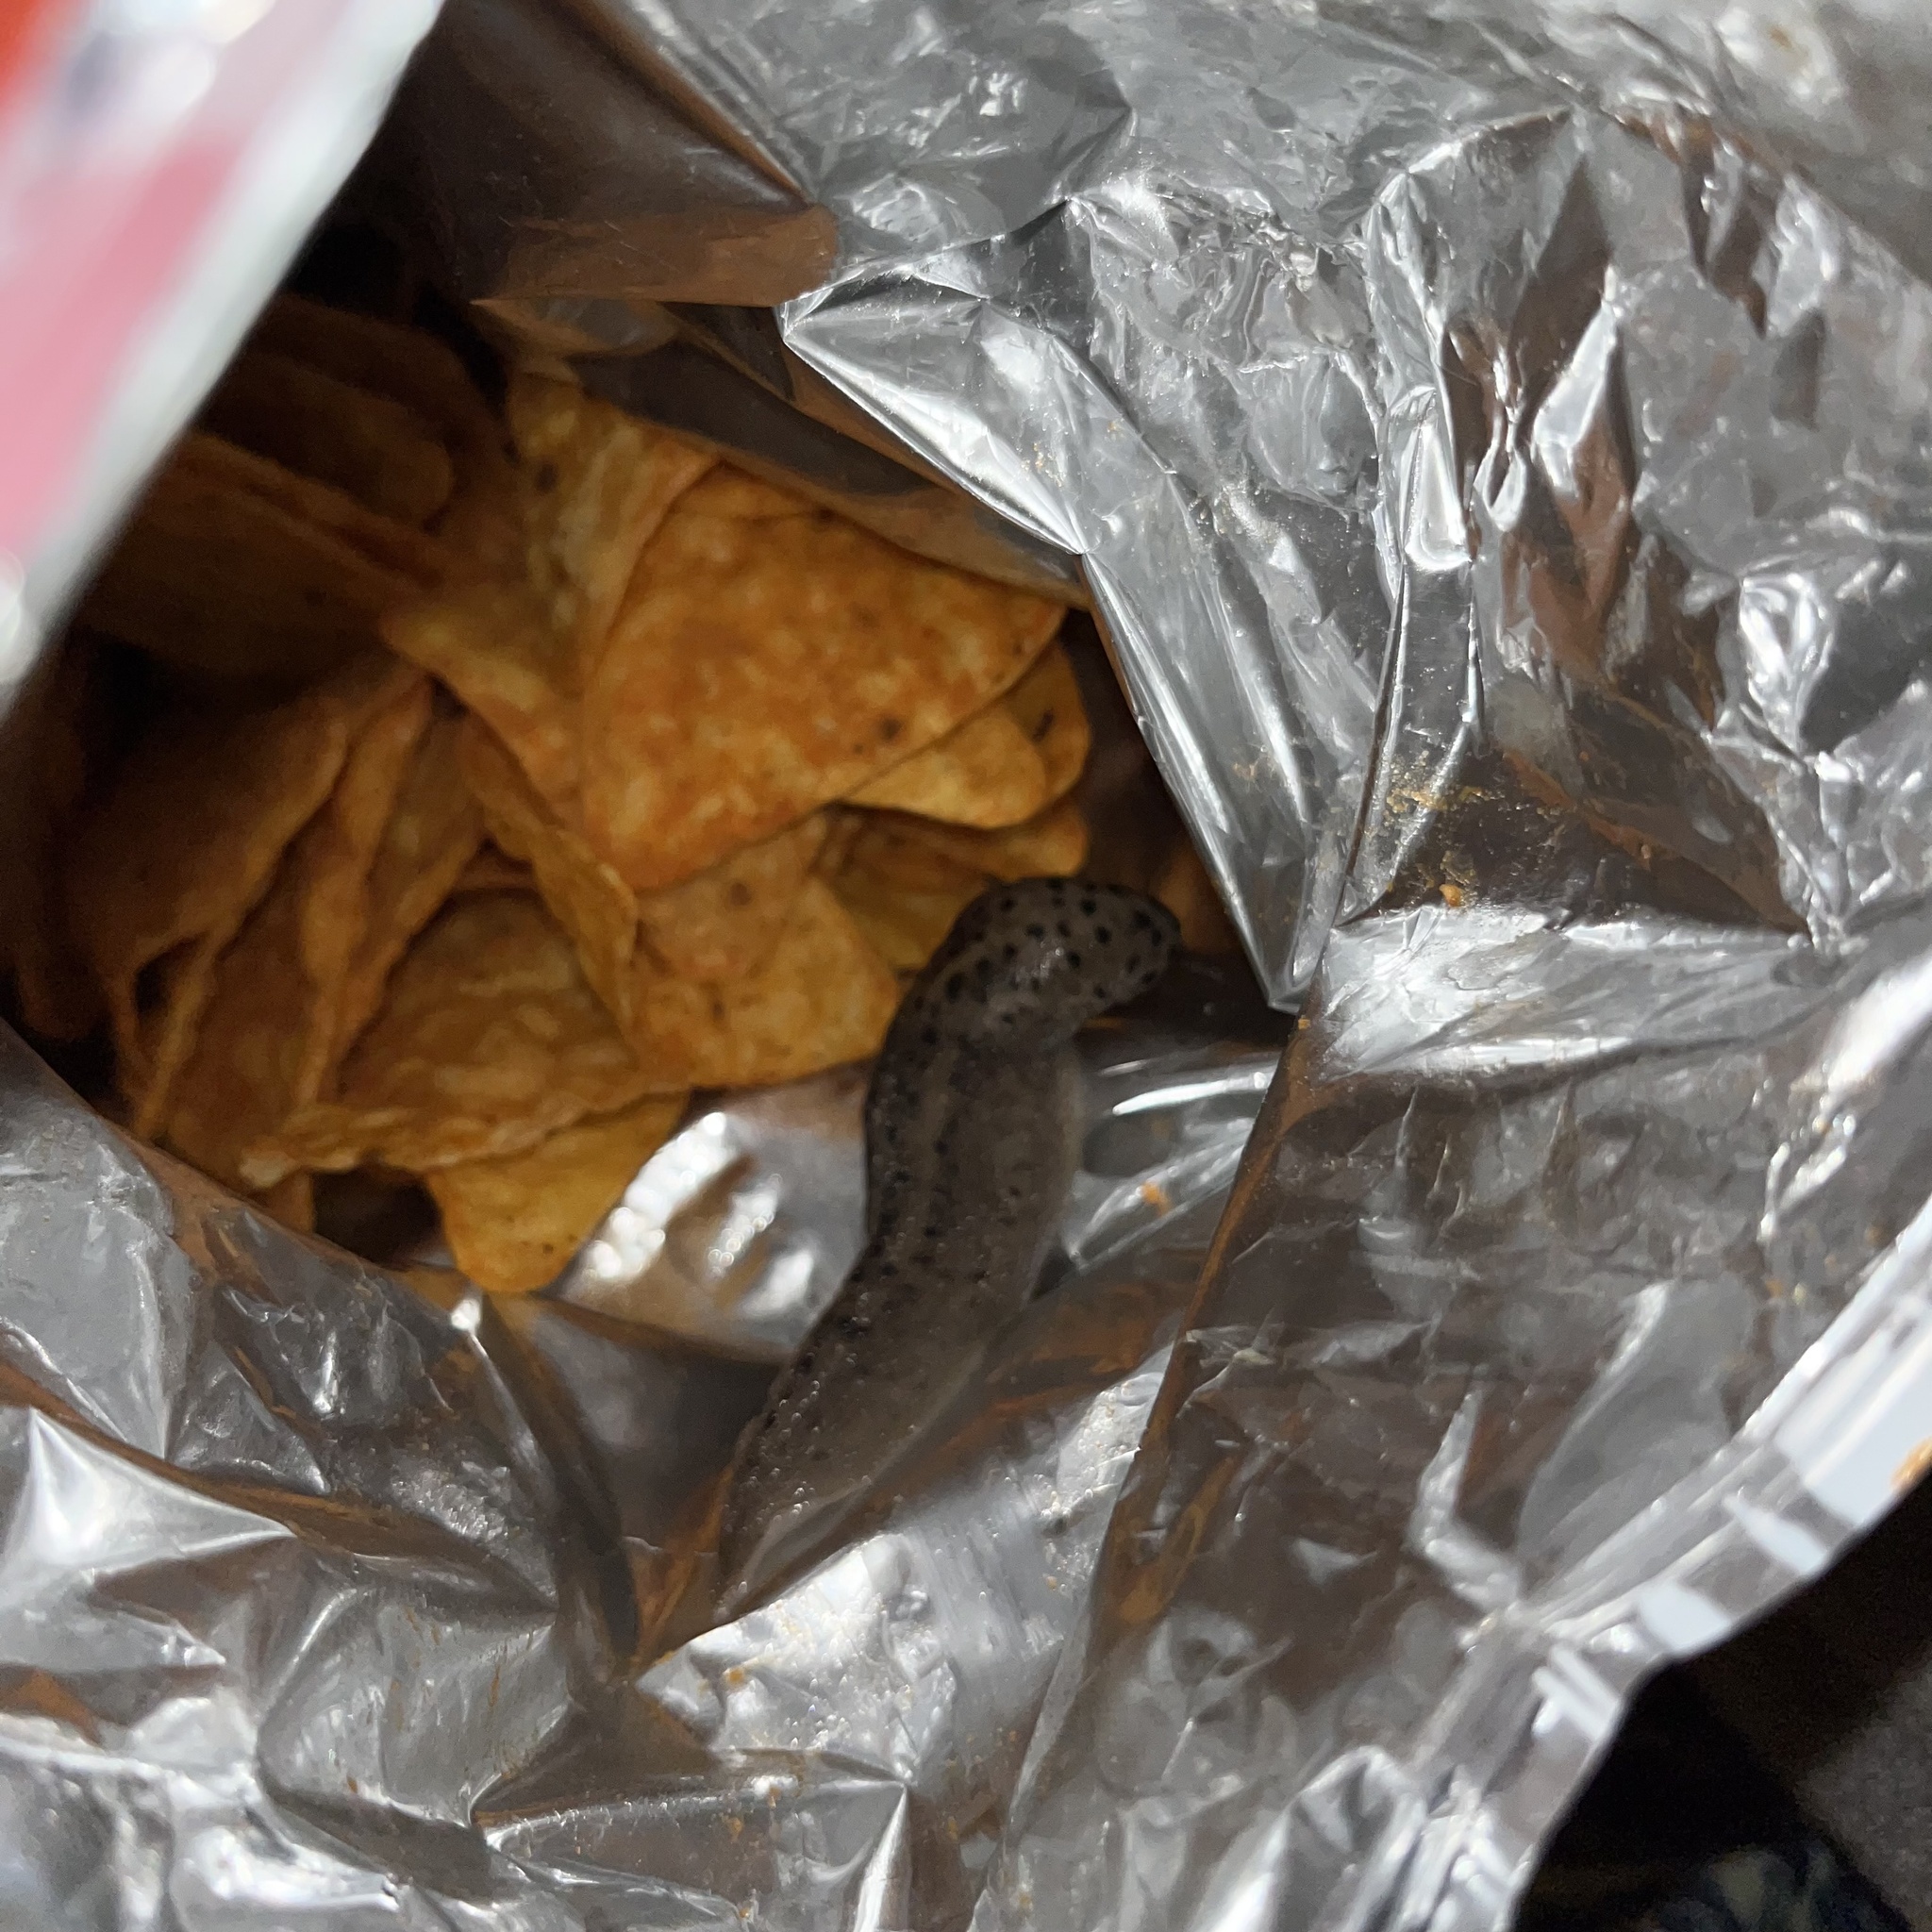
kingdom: Animalia
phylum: Mollusca
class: Gastropoda
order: Stylommatophora
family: Limacidae
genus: Limax
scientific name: Limax maximus
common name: Great grey slug
